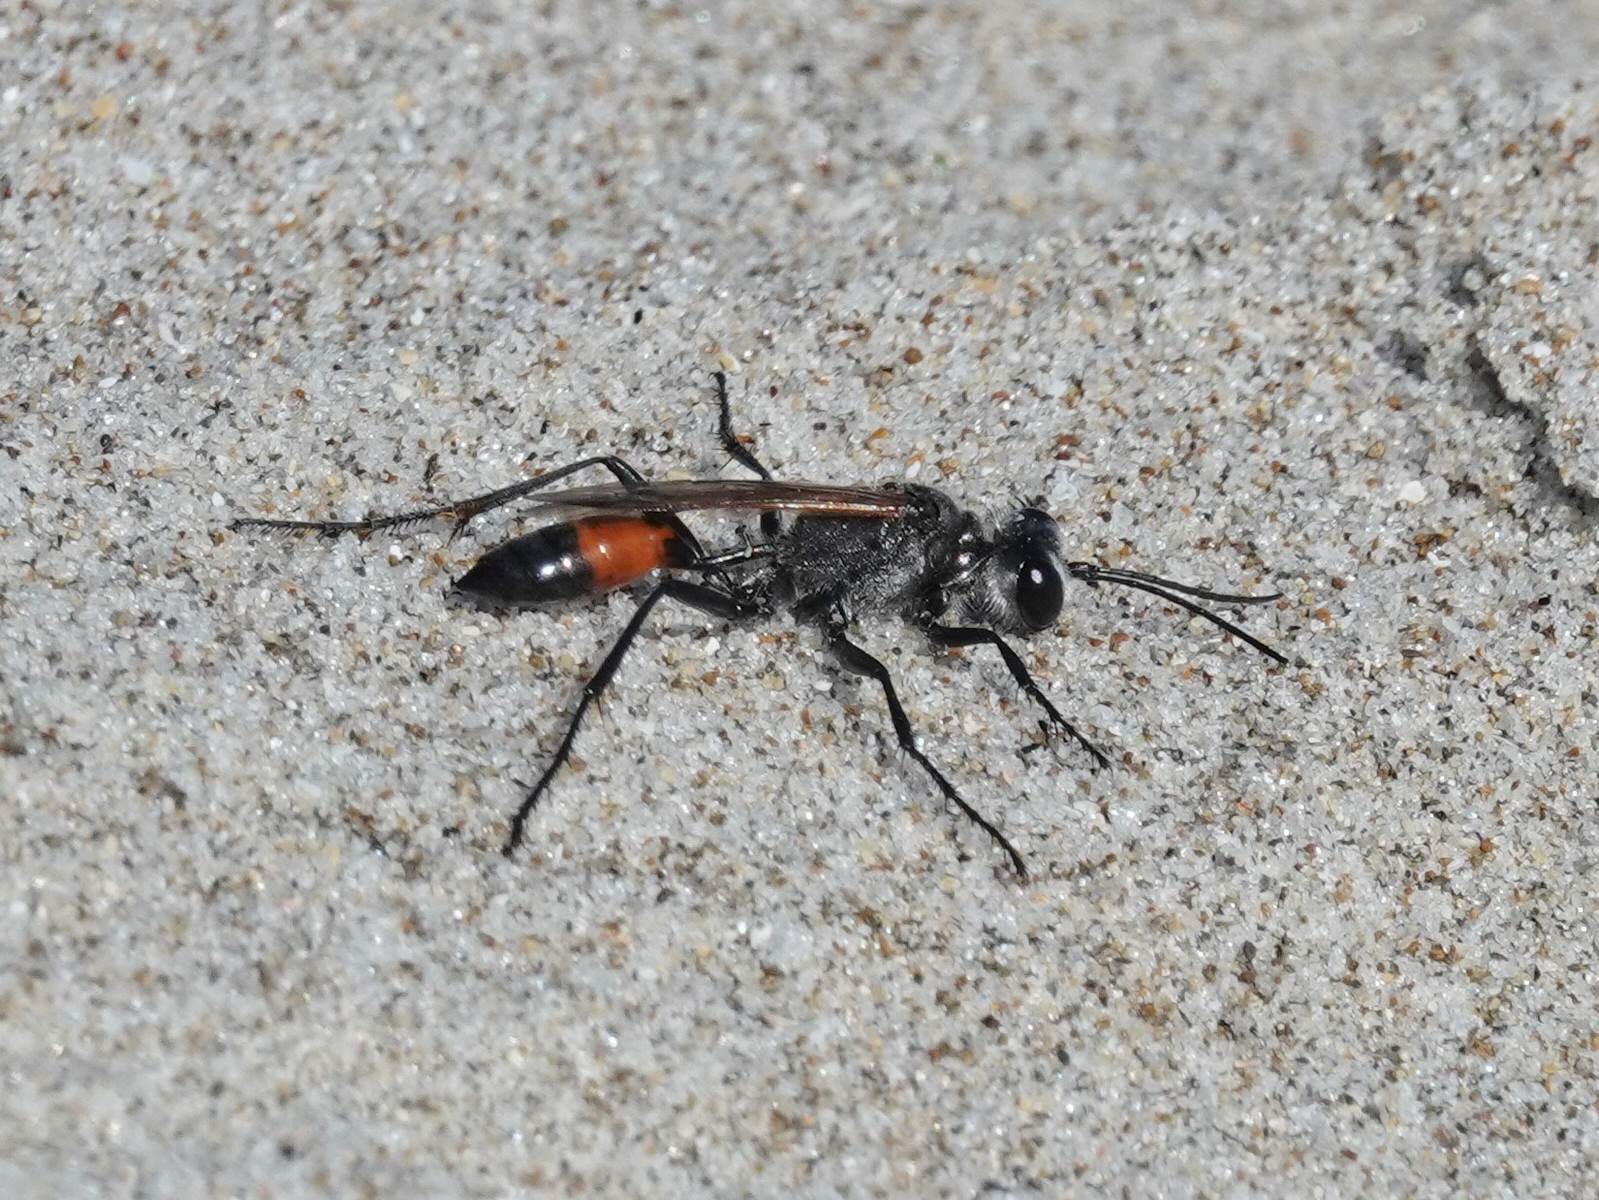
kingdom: Animalia
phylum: Arthropoda
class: Insecta
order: Hymenoptera
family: Sphecidae
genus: Podalonia
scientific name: Podalonia tydei
